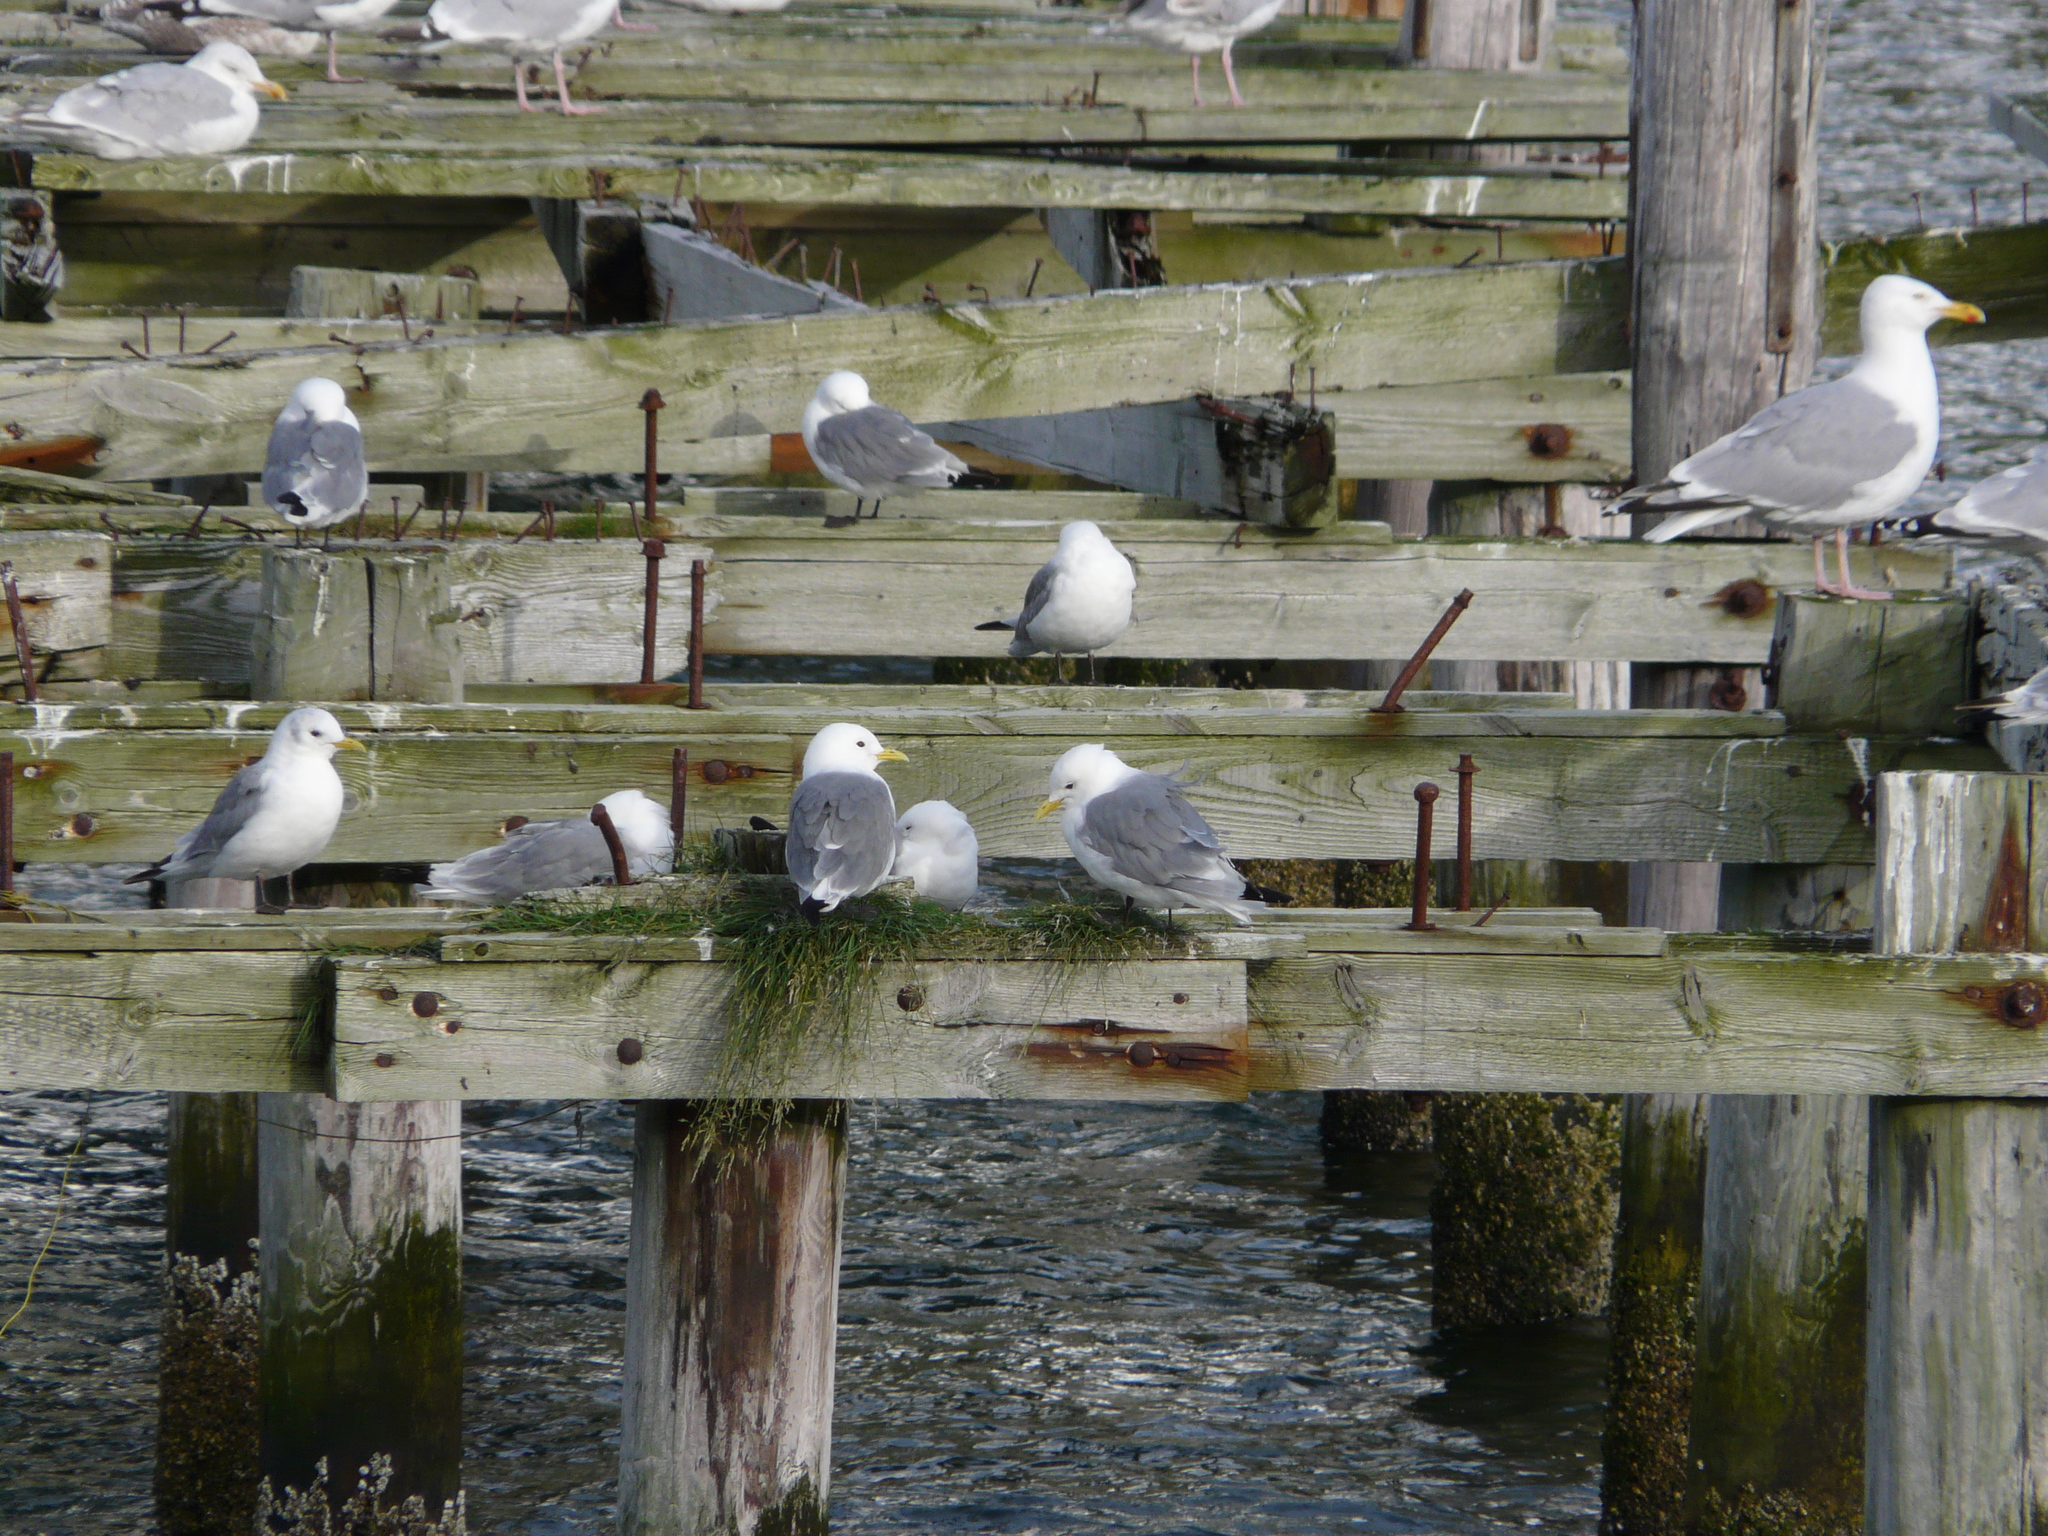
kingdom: Animalia
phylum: Chordata
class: Aves
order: Charadriiformes
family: Laridae
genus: Rissa
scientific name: Rissa tridactyla
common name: Black-legged kittiwake
